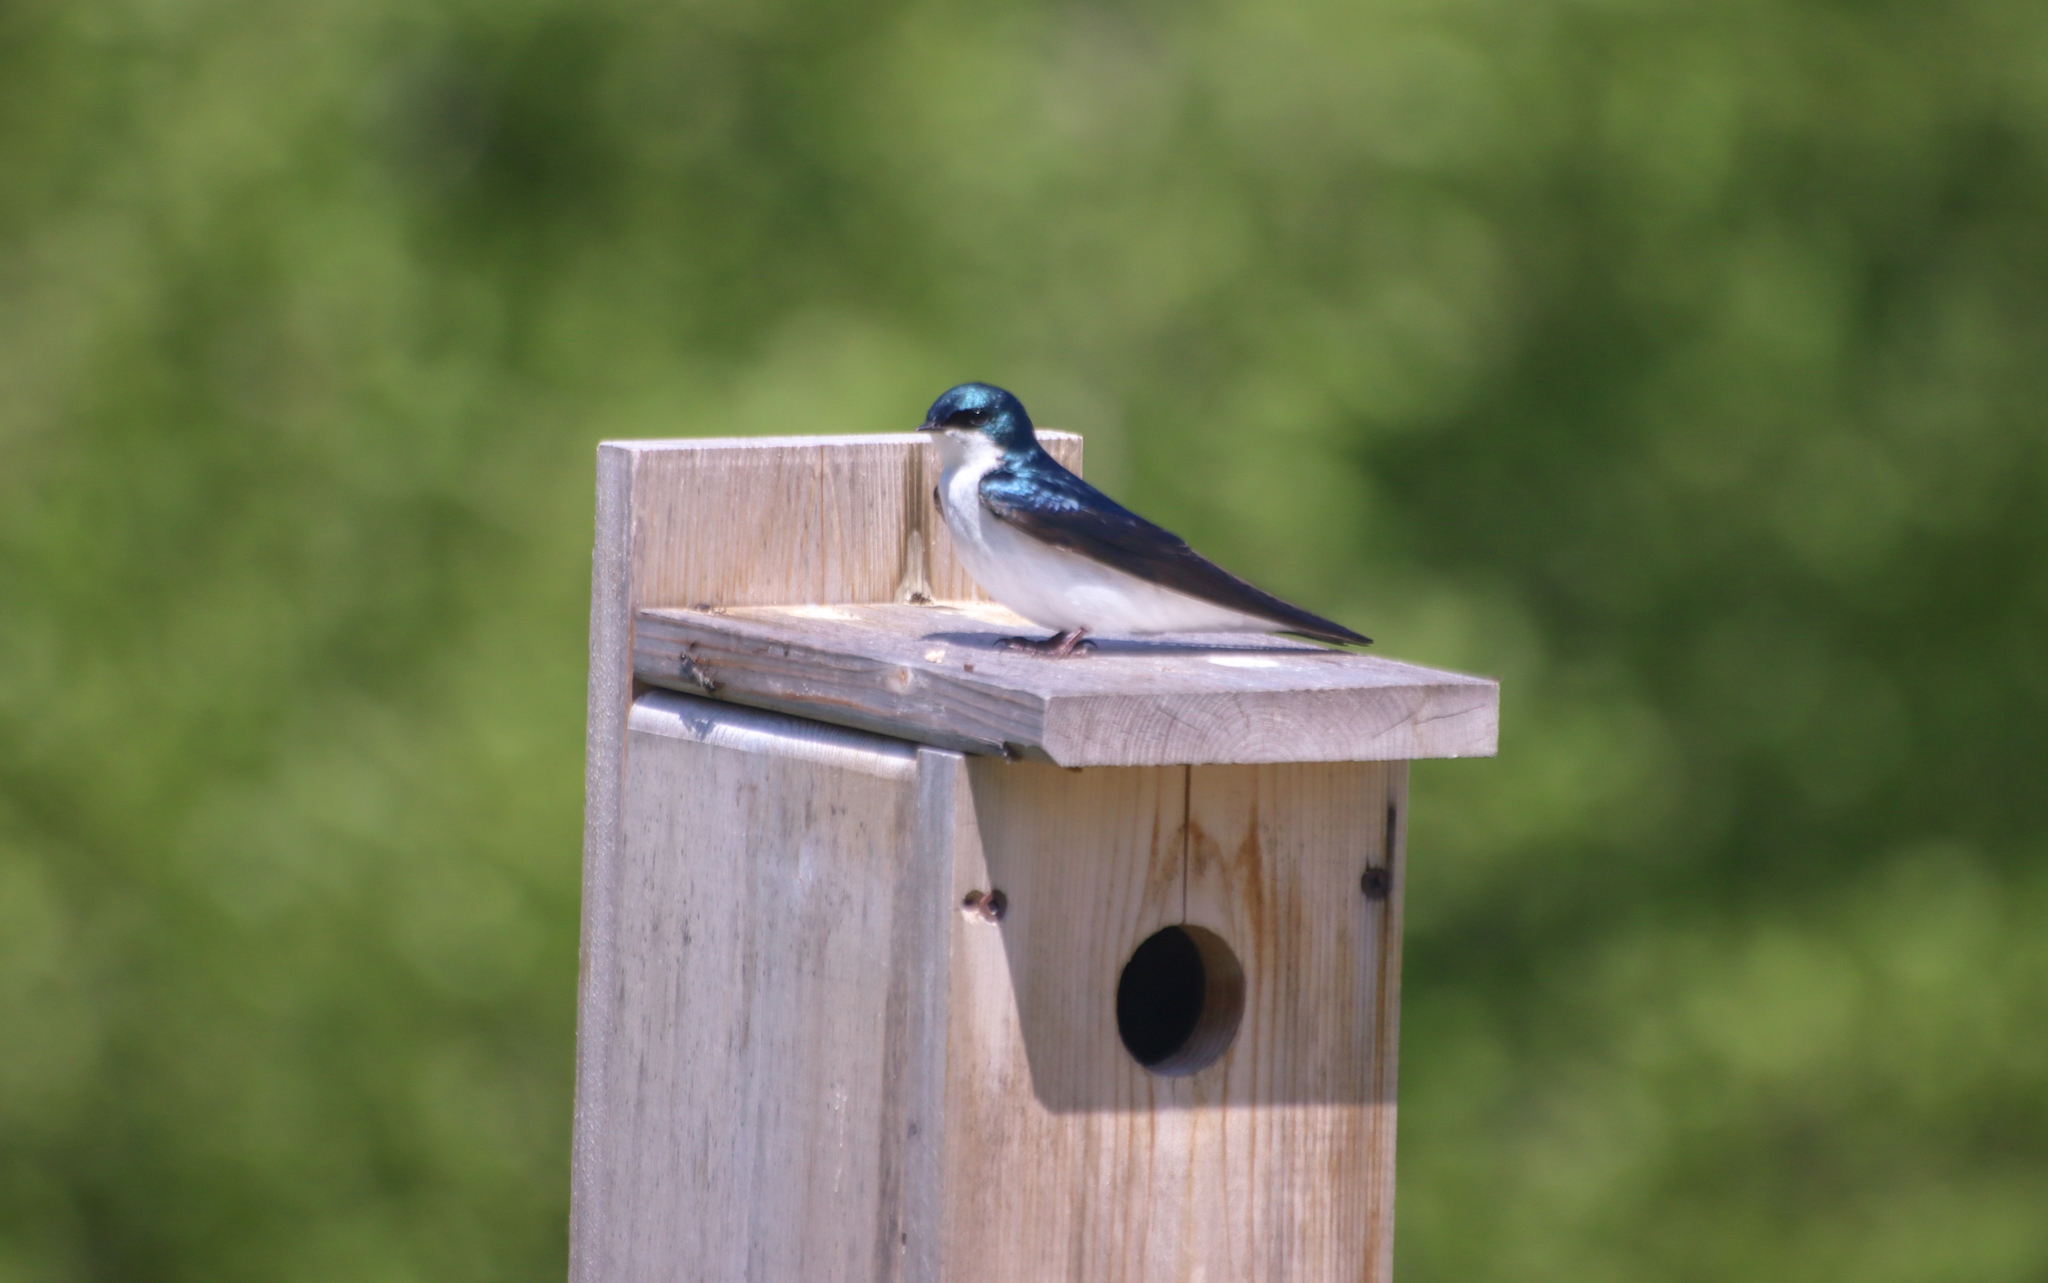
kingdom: Animalia
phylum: Chordata
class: Aves
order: Passeriformes
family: Hirundinidae
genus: Tachycineta
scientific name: Tachycineta bicolor
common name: Tree swallow
